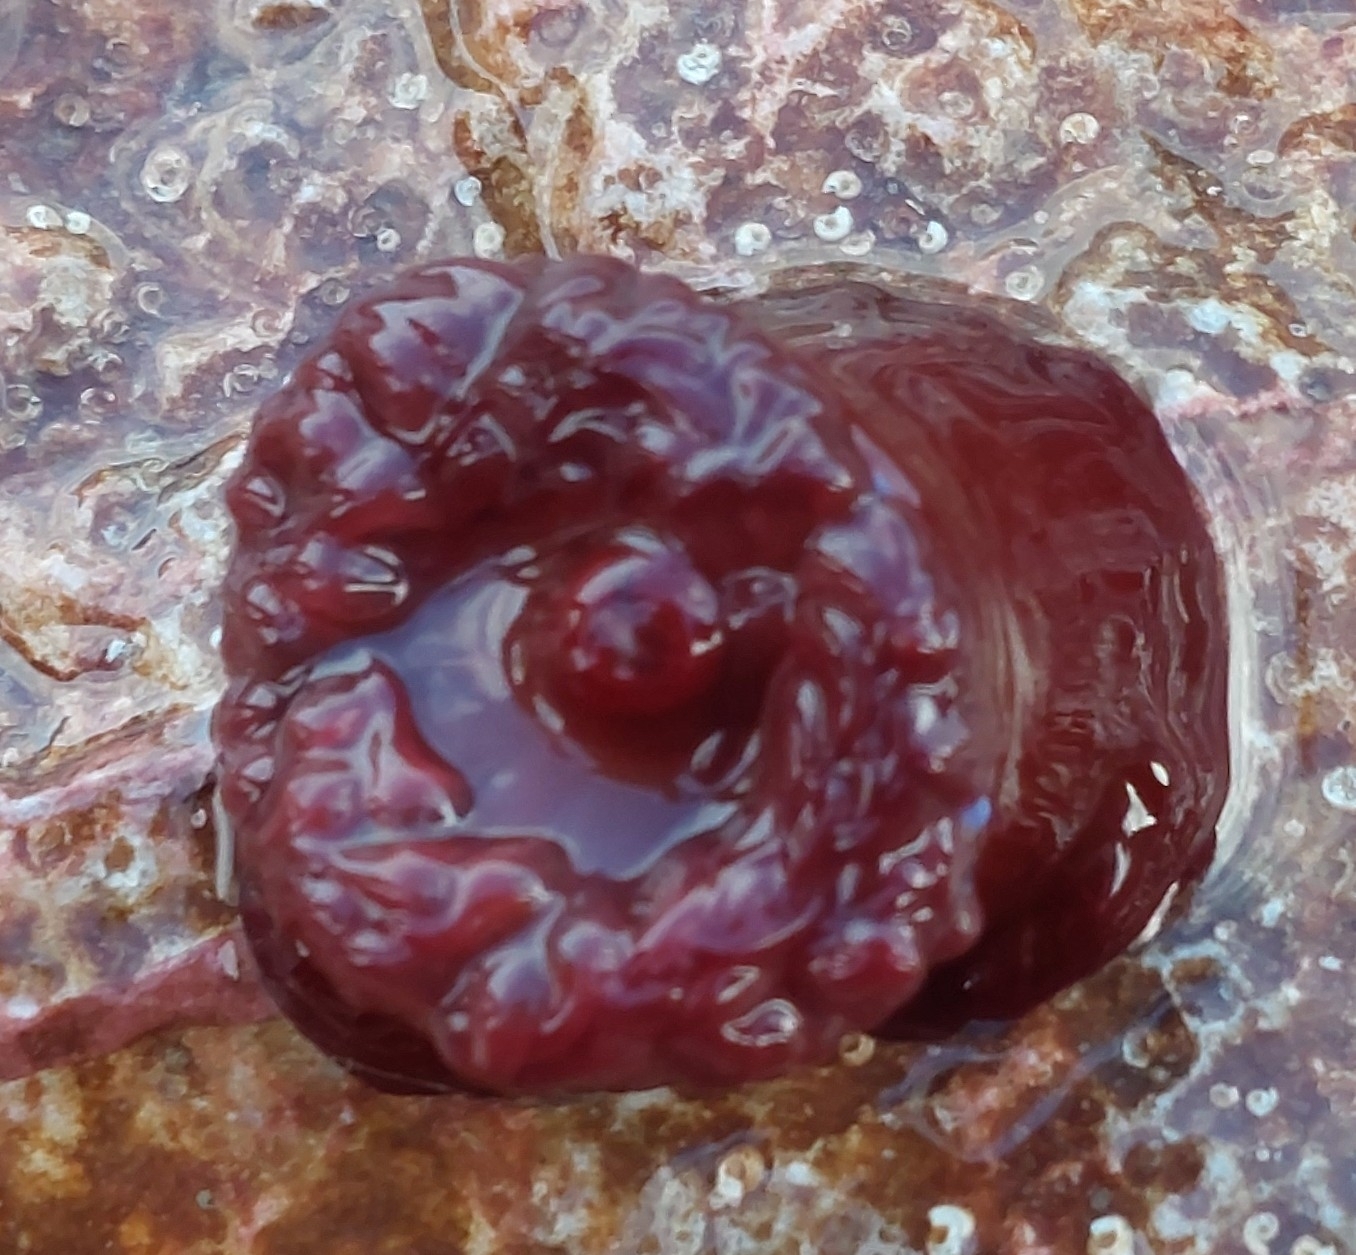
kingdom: Animalia
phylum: Cnidaria
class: Anthozoa
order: Actiniaria
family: Actiniidae
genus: Actinia
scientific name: Actinia equina
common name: Beadlet anemone
